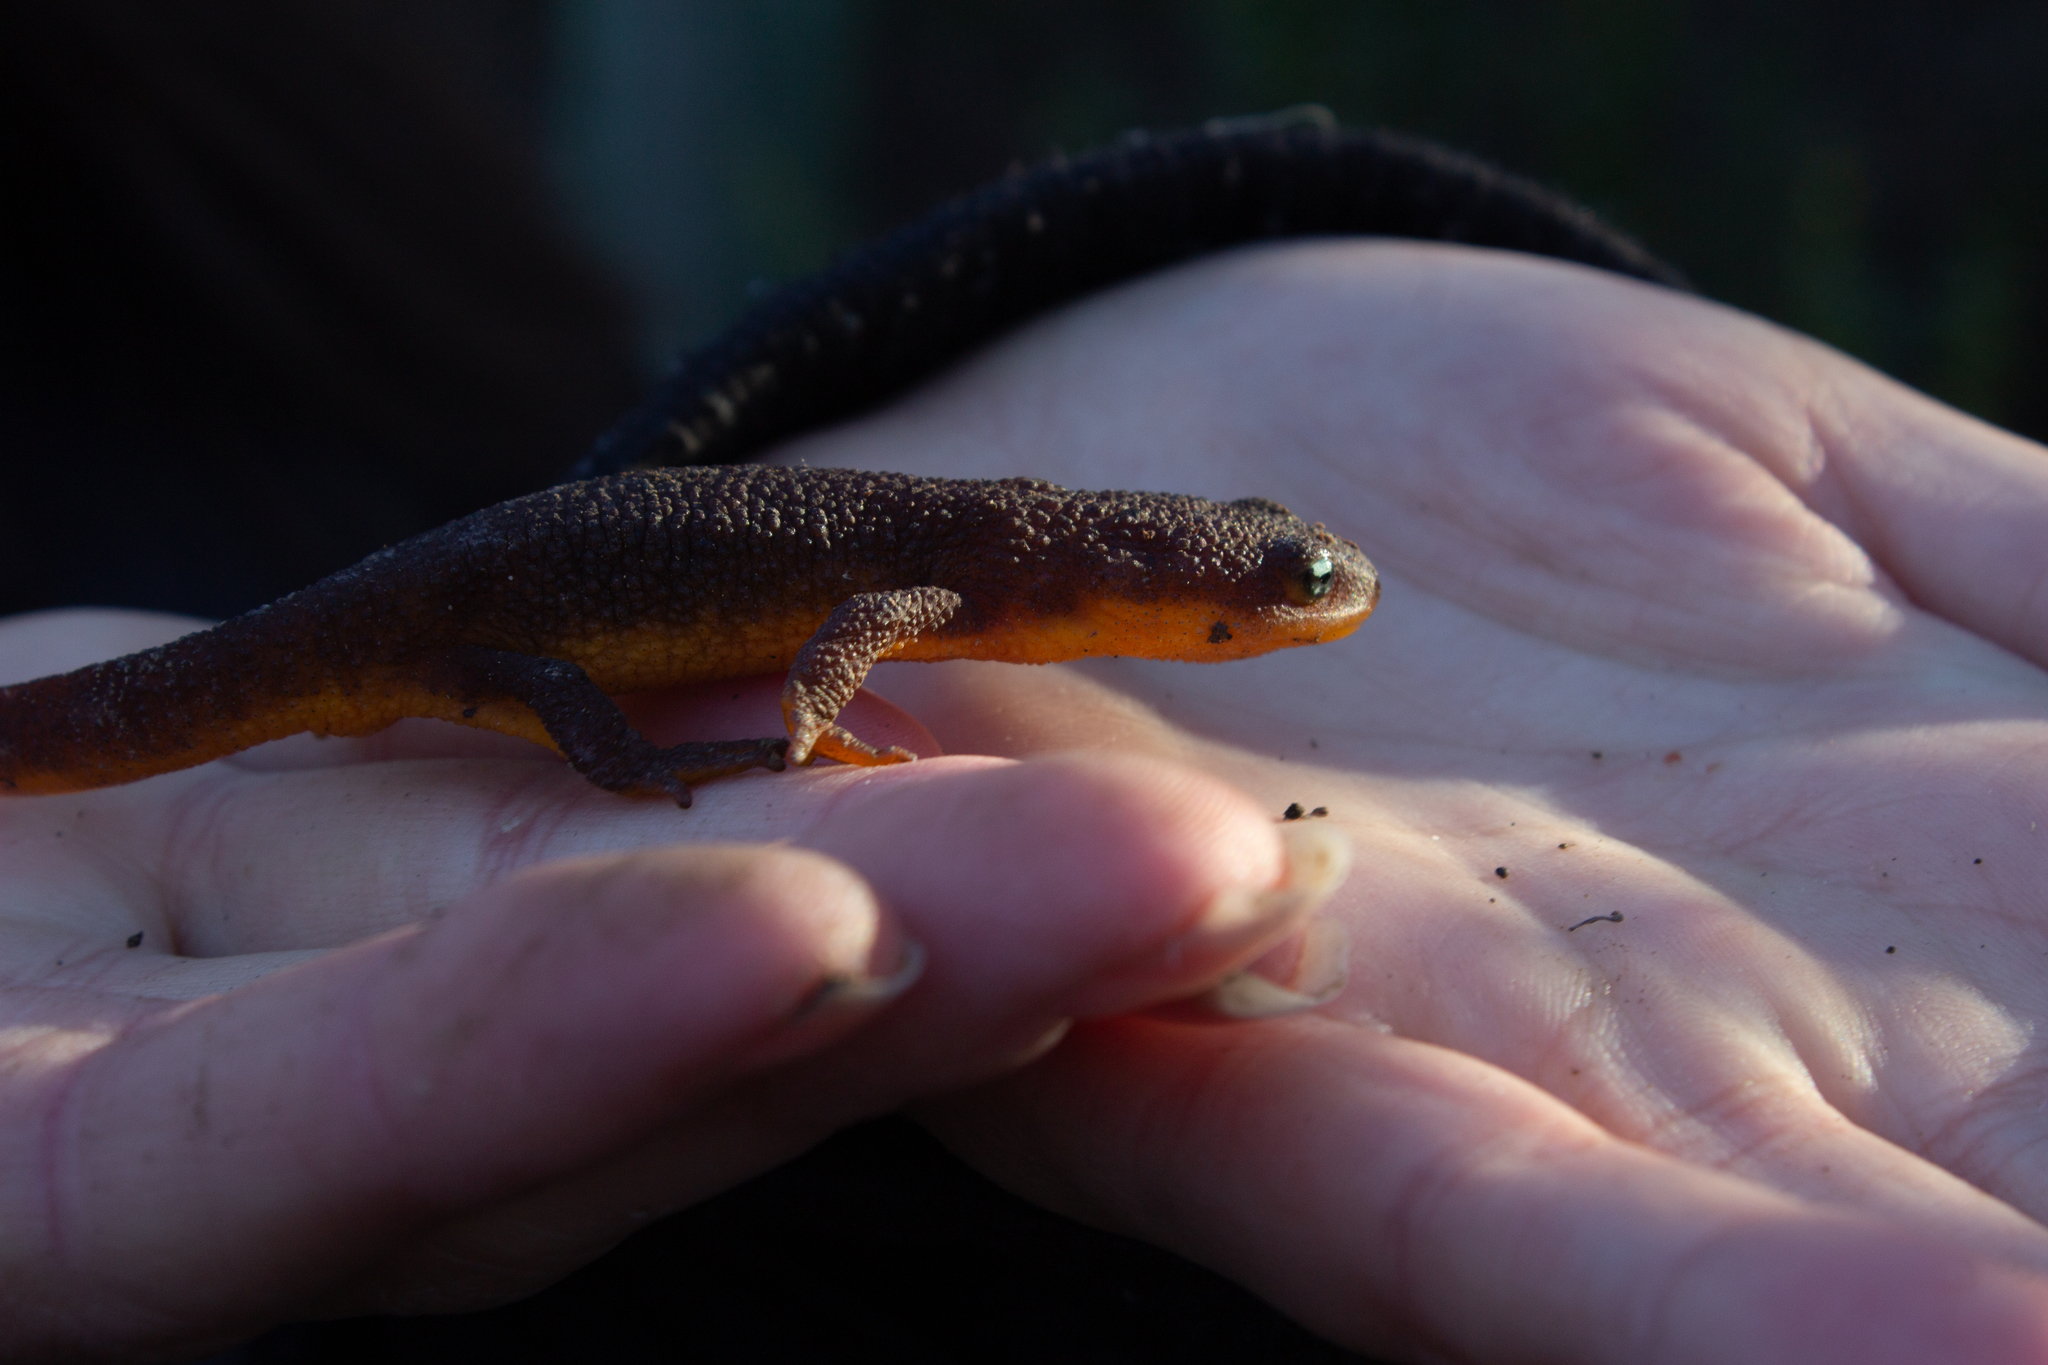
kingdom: Animalia
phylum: Chordata
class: Amphibia
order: Caudata
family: Salamandridae
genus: Taricha
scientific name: Taricha granulosa
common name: Roughskin newt
